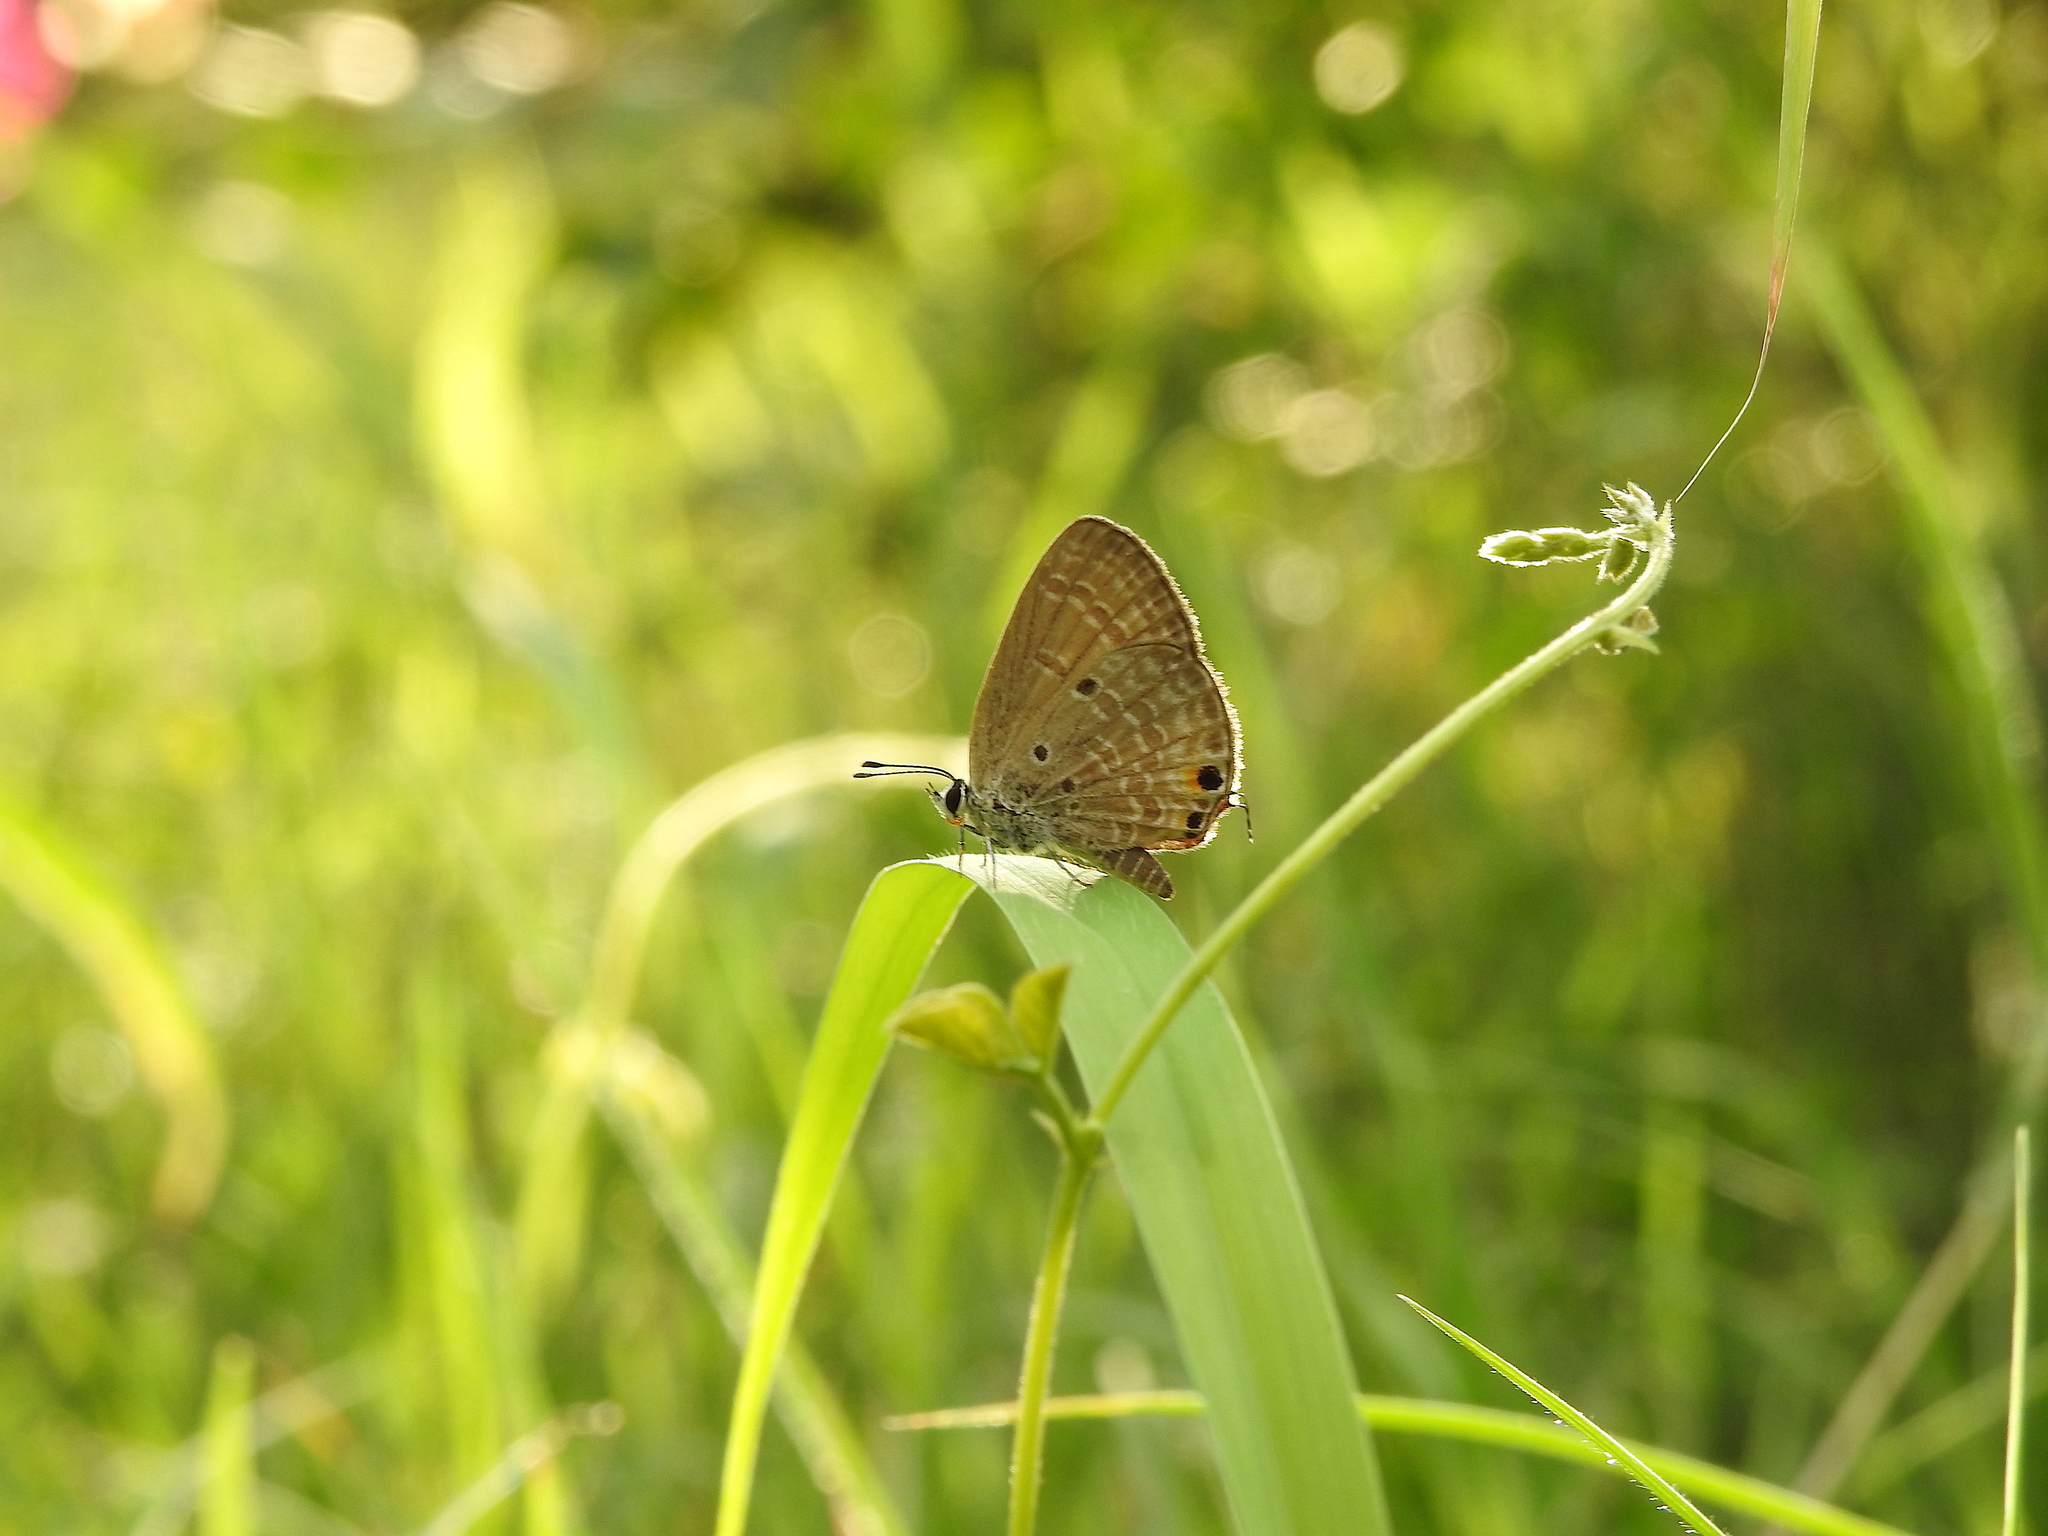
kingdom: Animalia
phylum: Arthropoda
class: Insecta
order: Lepidoptera
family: Lycaenidae
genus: Luthrodes
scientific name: Luthrodes pandava
